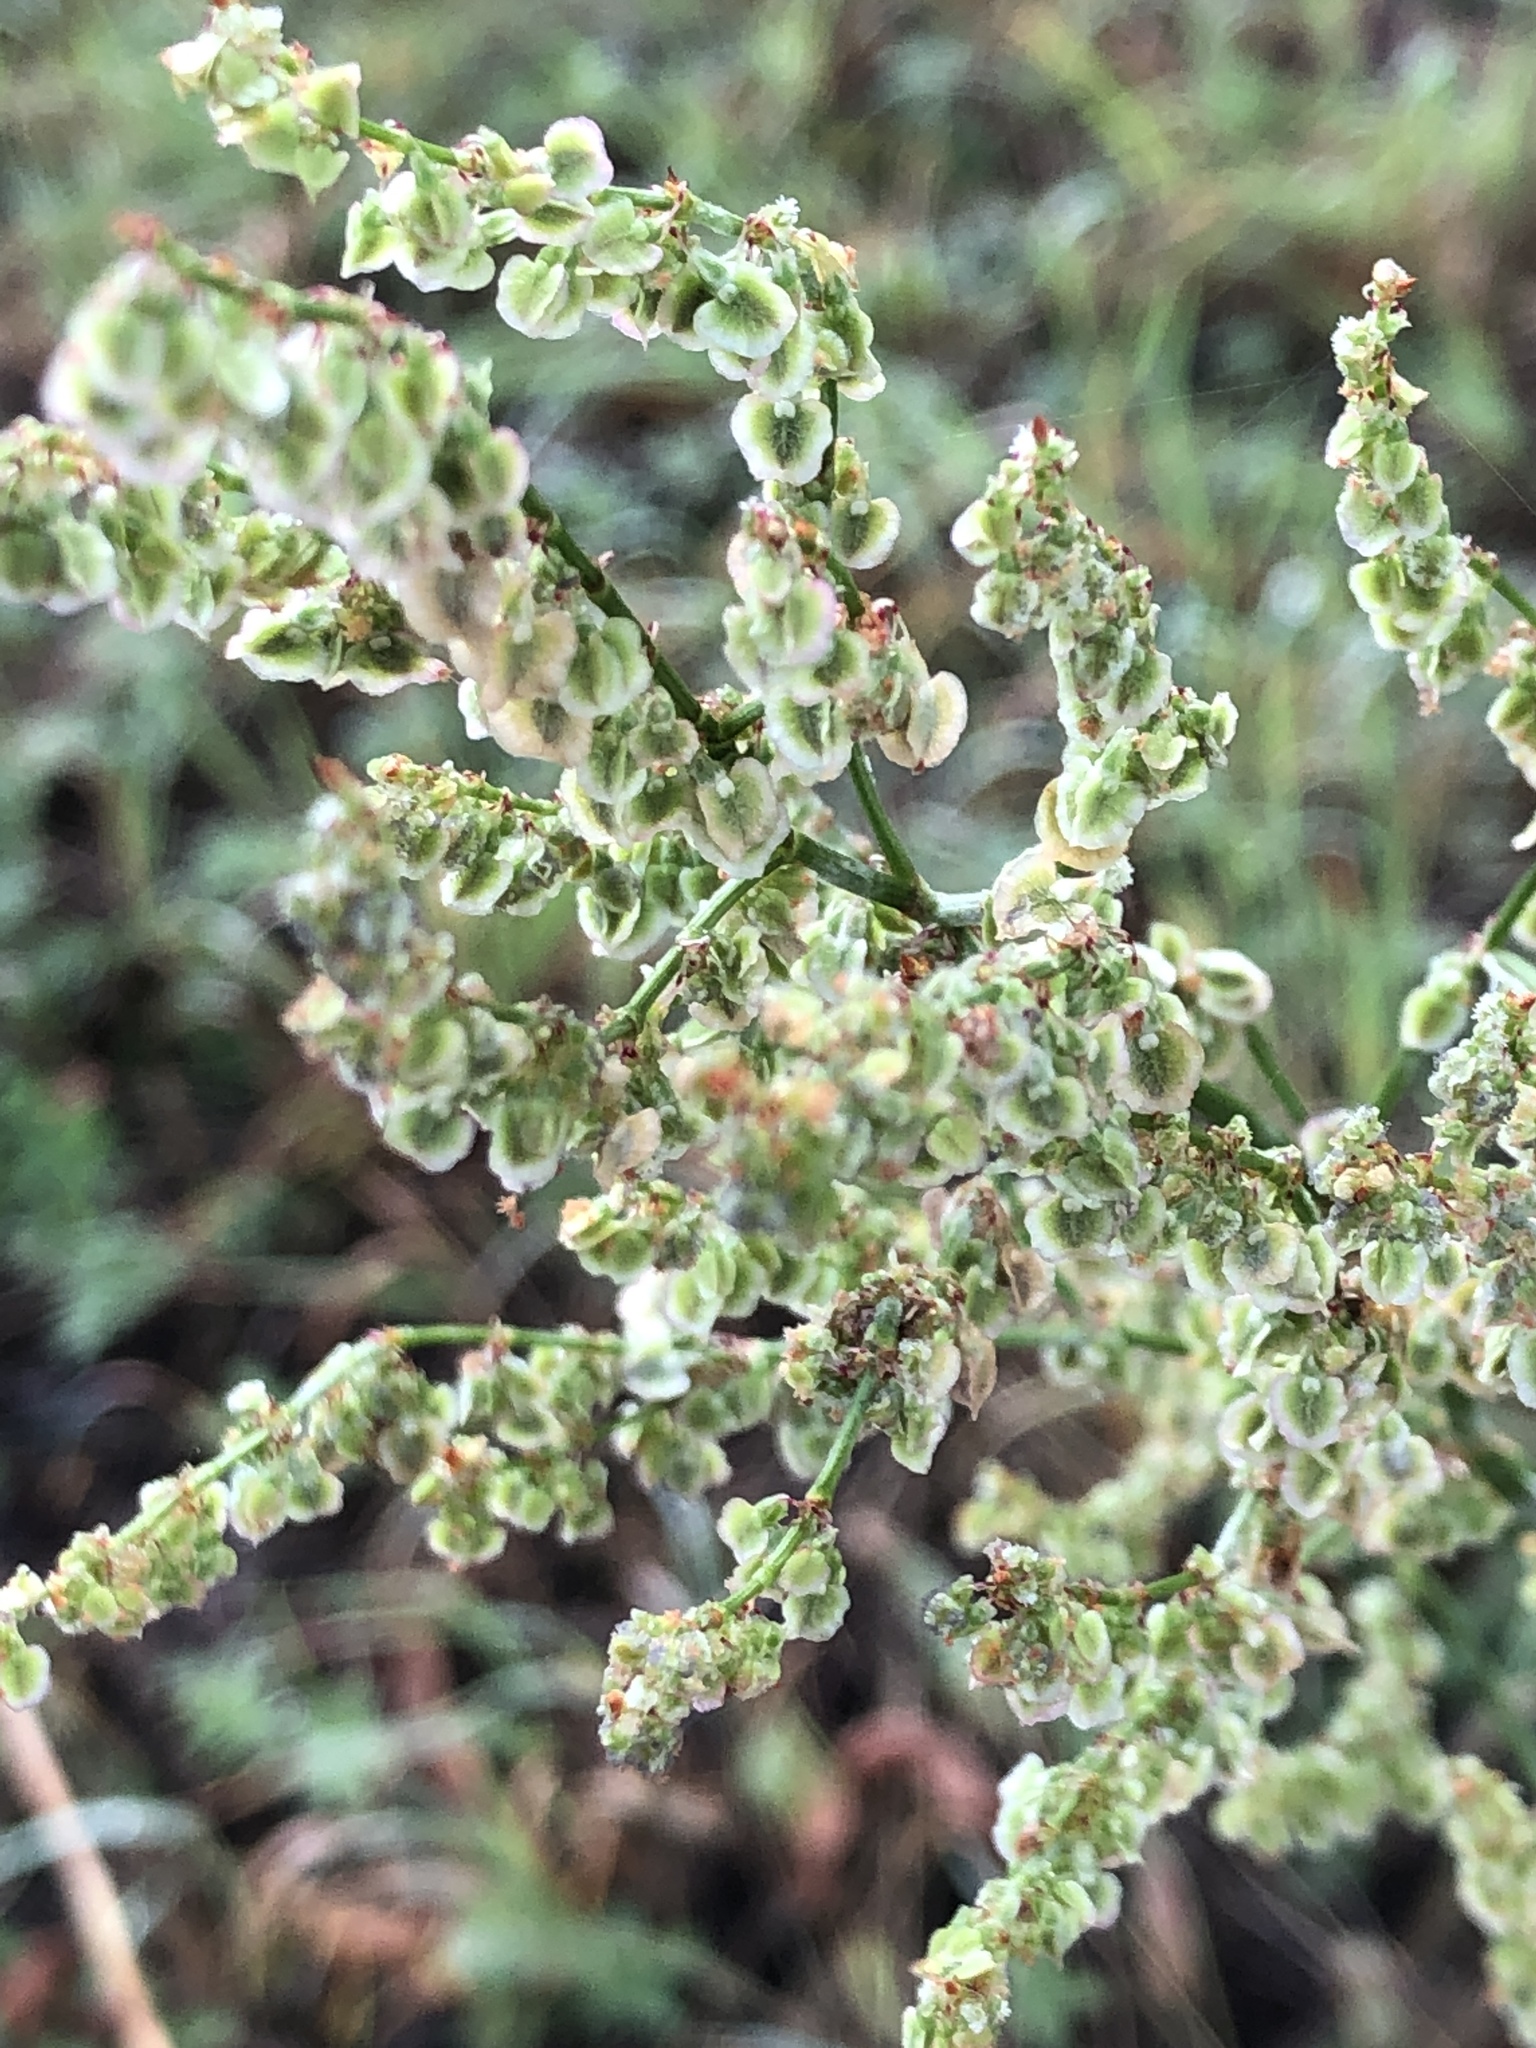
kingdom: Plantae
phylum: Tracheophyta
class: Magnoliopsida
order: Caryophyllales
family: Polygonaceae
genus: Rumex
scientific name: Rumex thyrsiflorus
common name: Garden sorrel
